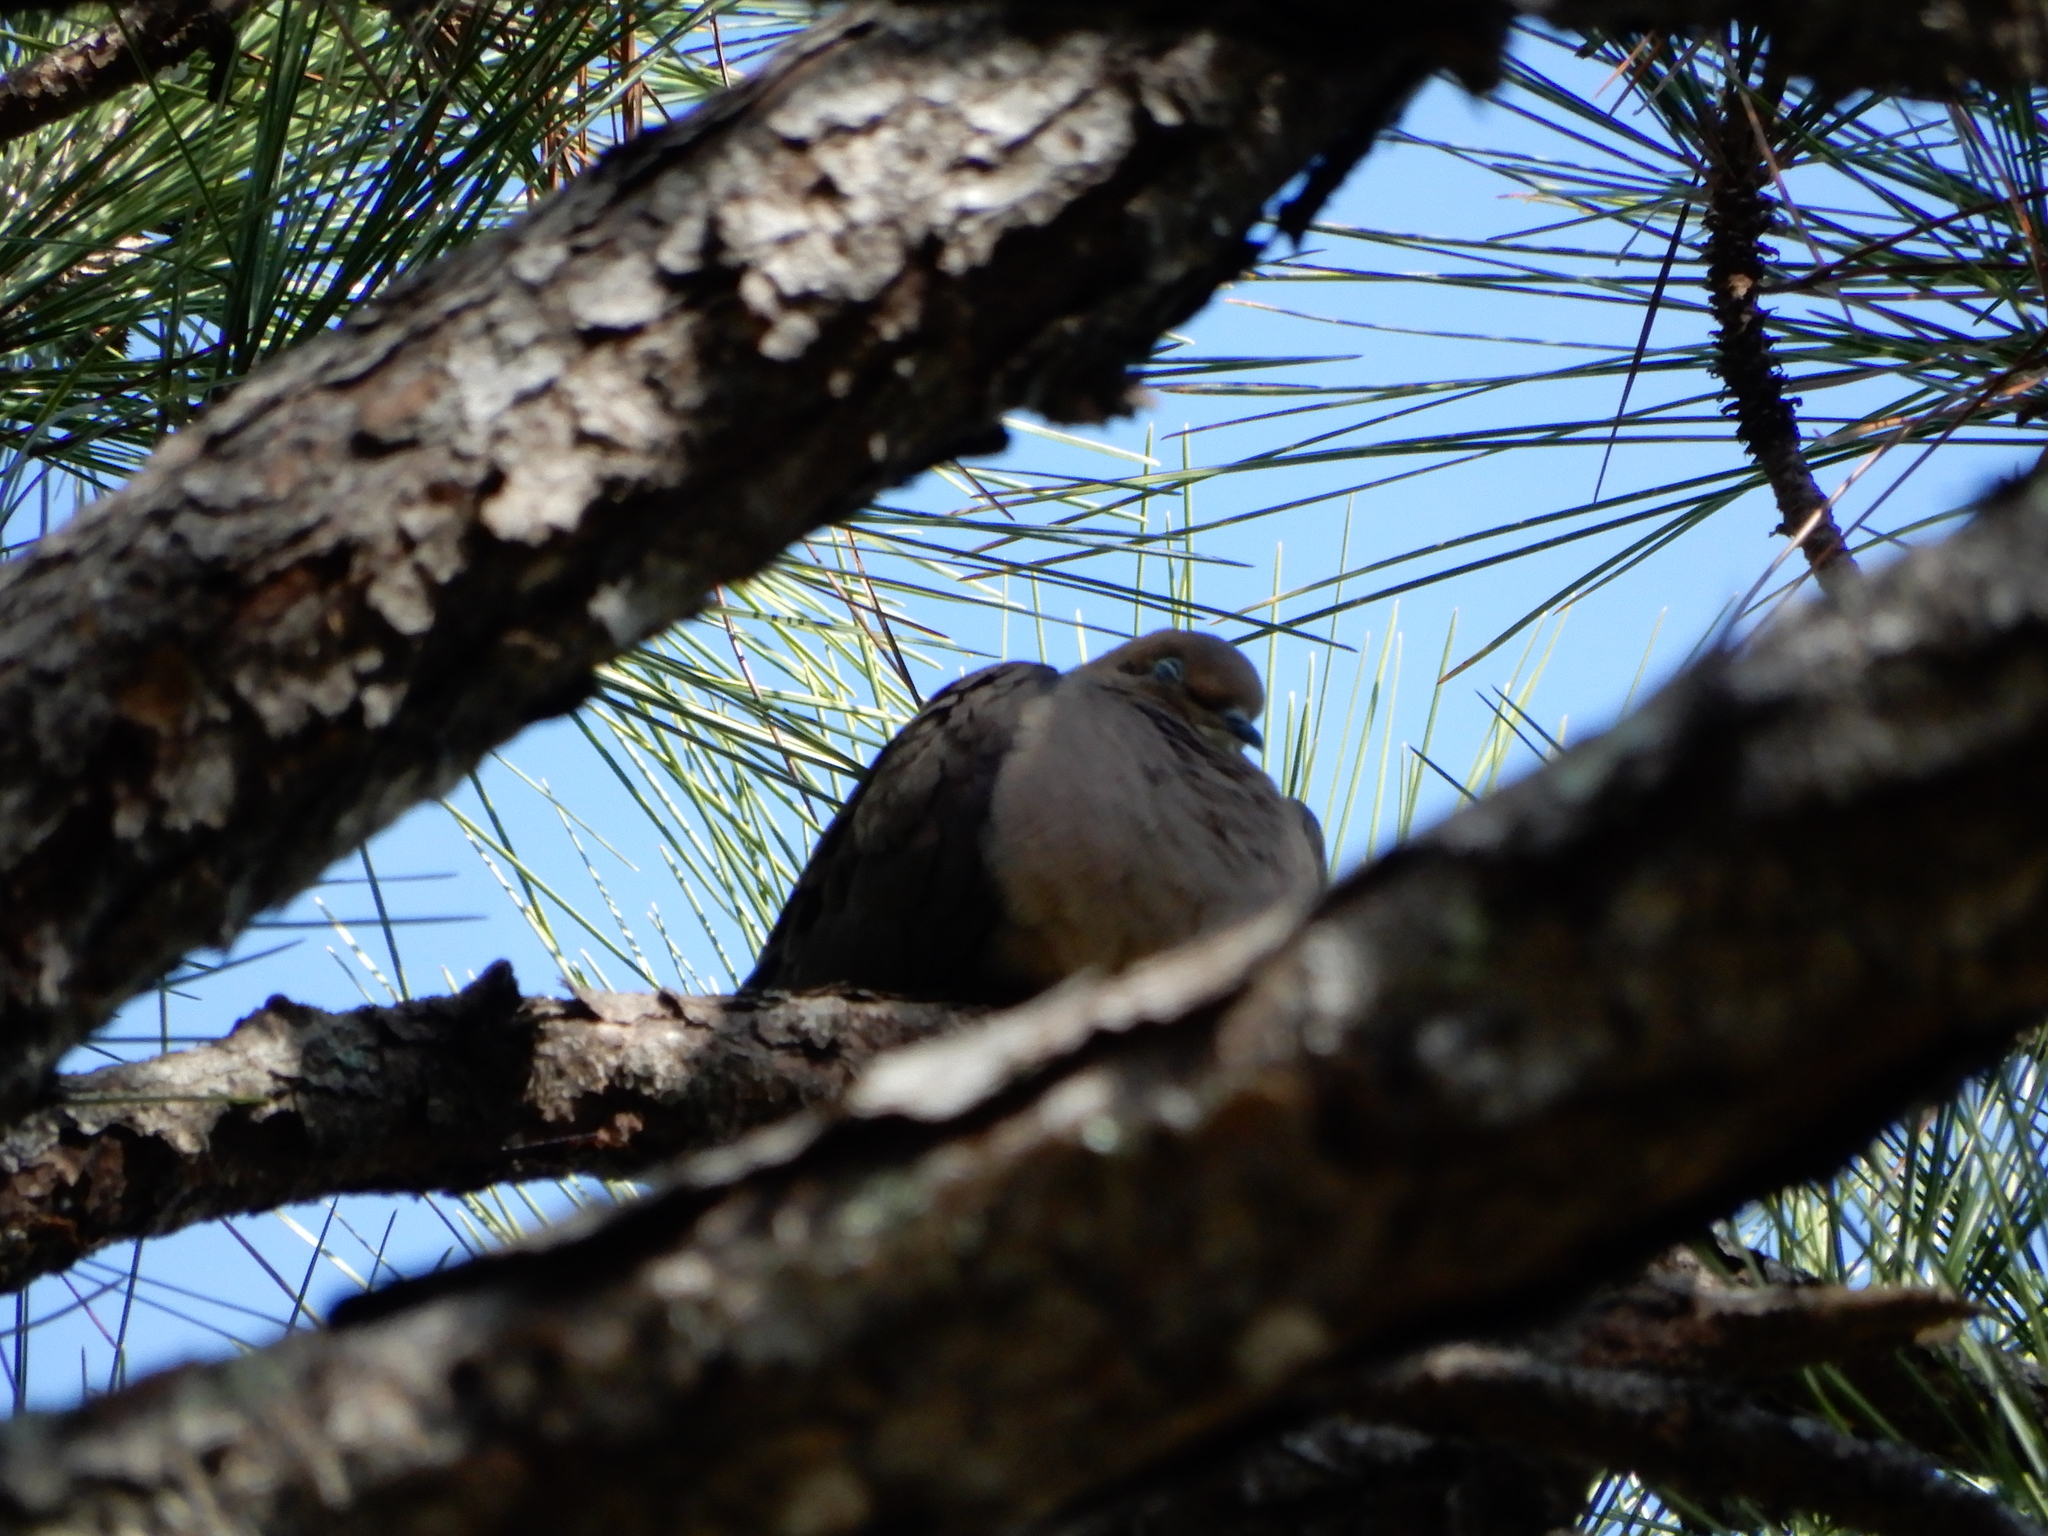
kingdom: Animalia
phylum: Chordata
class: Aves
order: Columbiformes
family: Columbidae
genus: Zenaida
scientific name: Zenaida macroura
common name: Mourning dove
